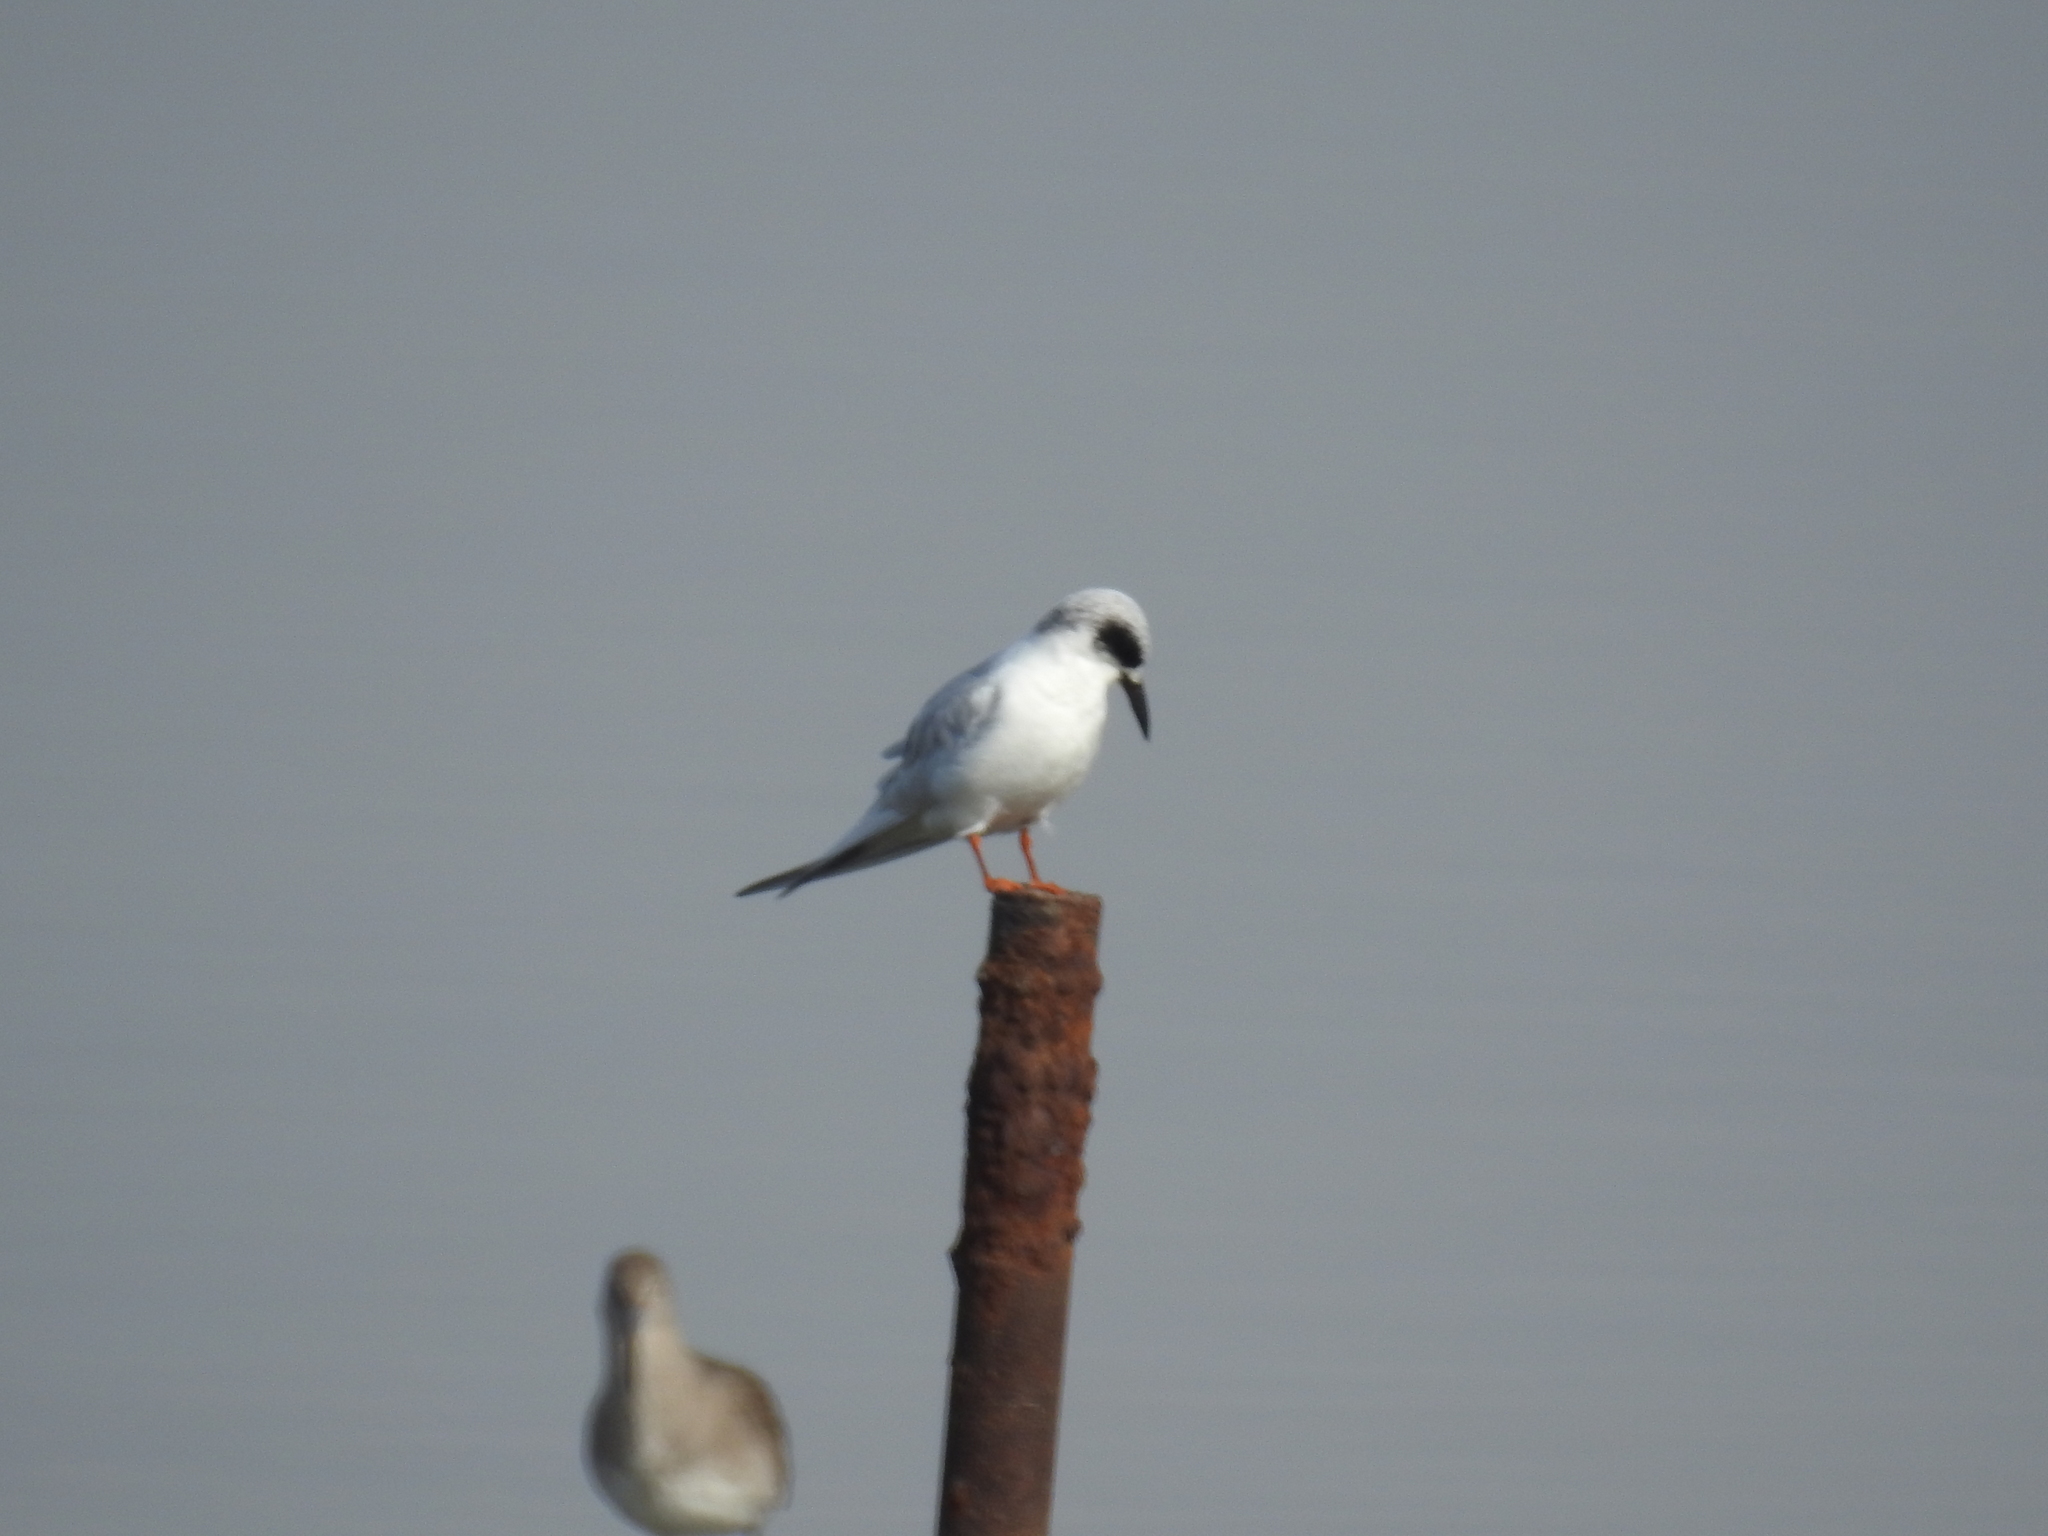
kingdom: Animalia
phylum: Chordata
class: Aves
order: Charadriiformes
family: Laridae
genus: Sterna
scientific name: Sterna forsteri
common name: Forster's tern
